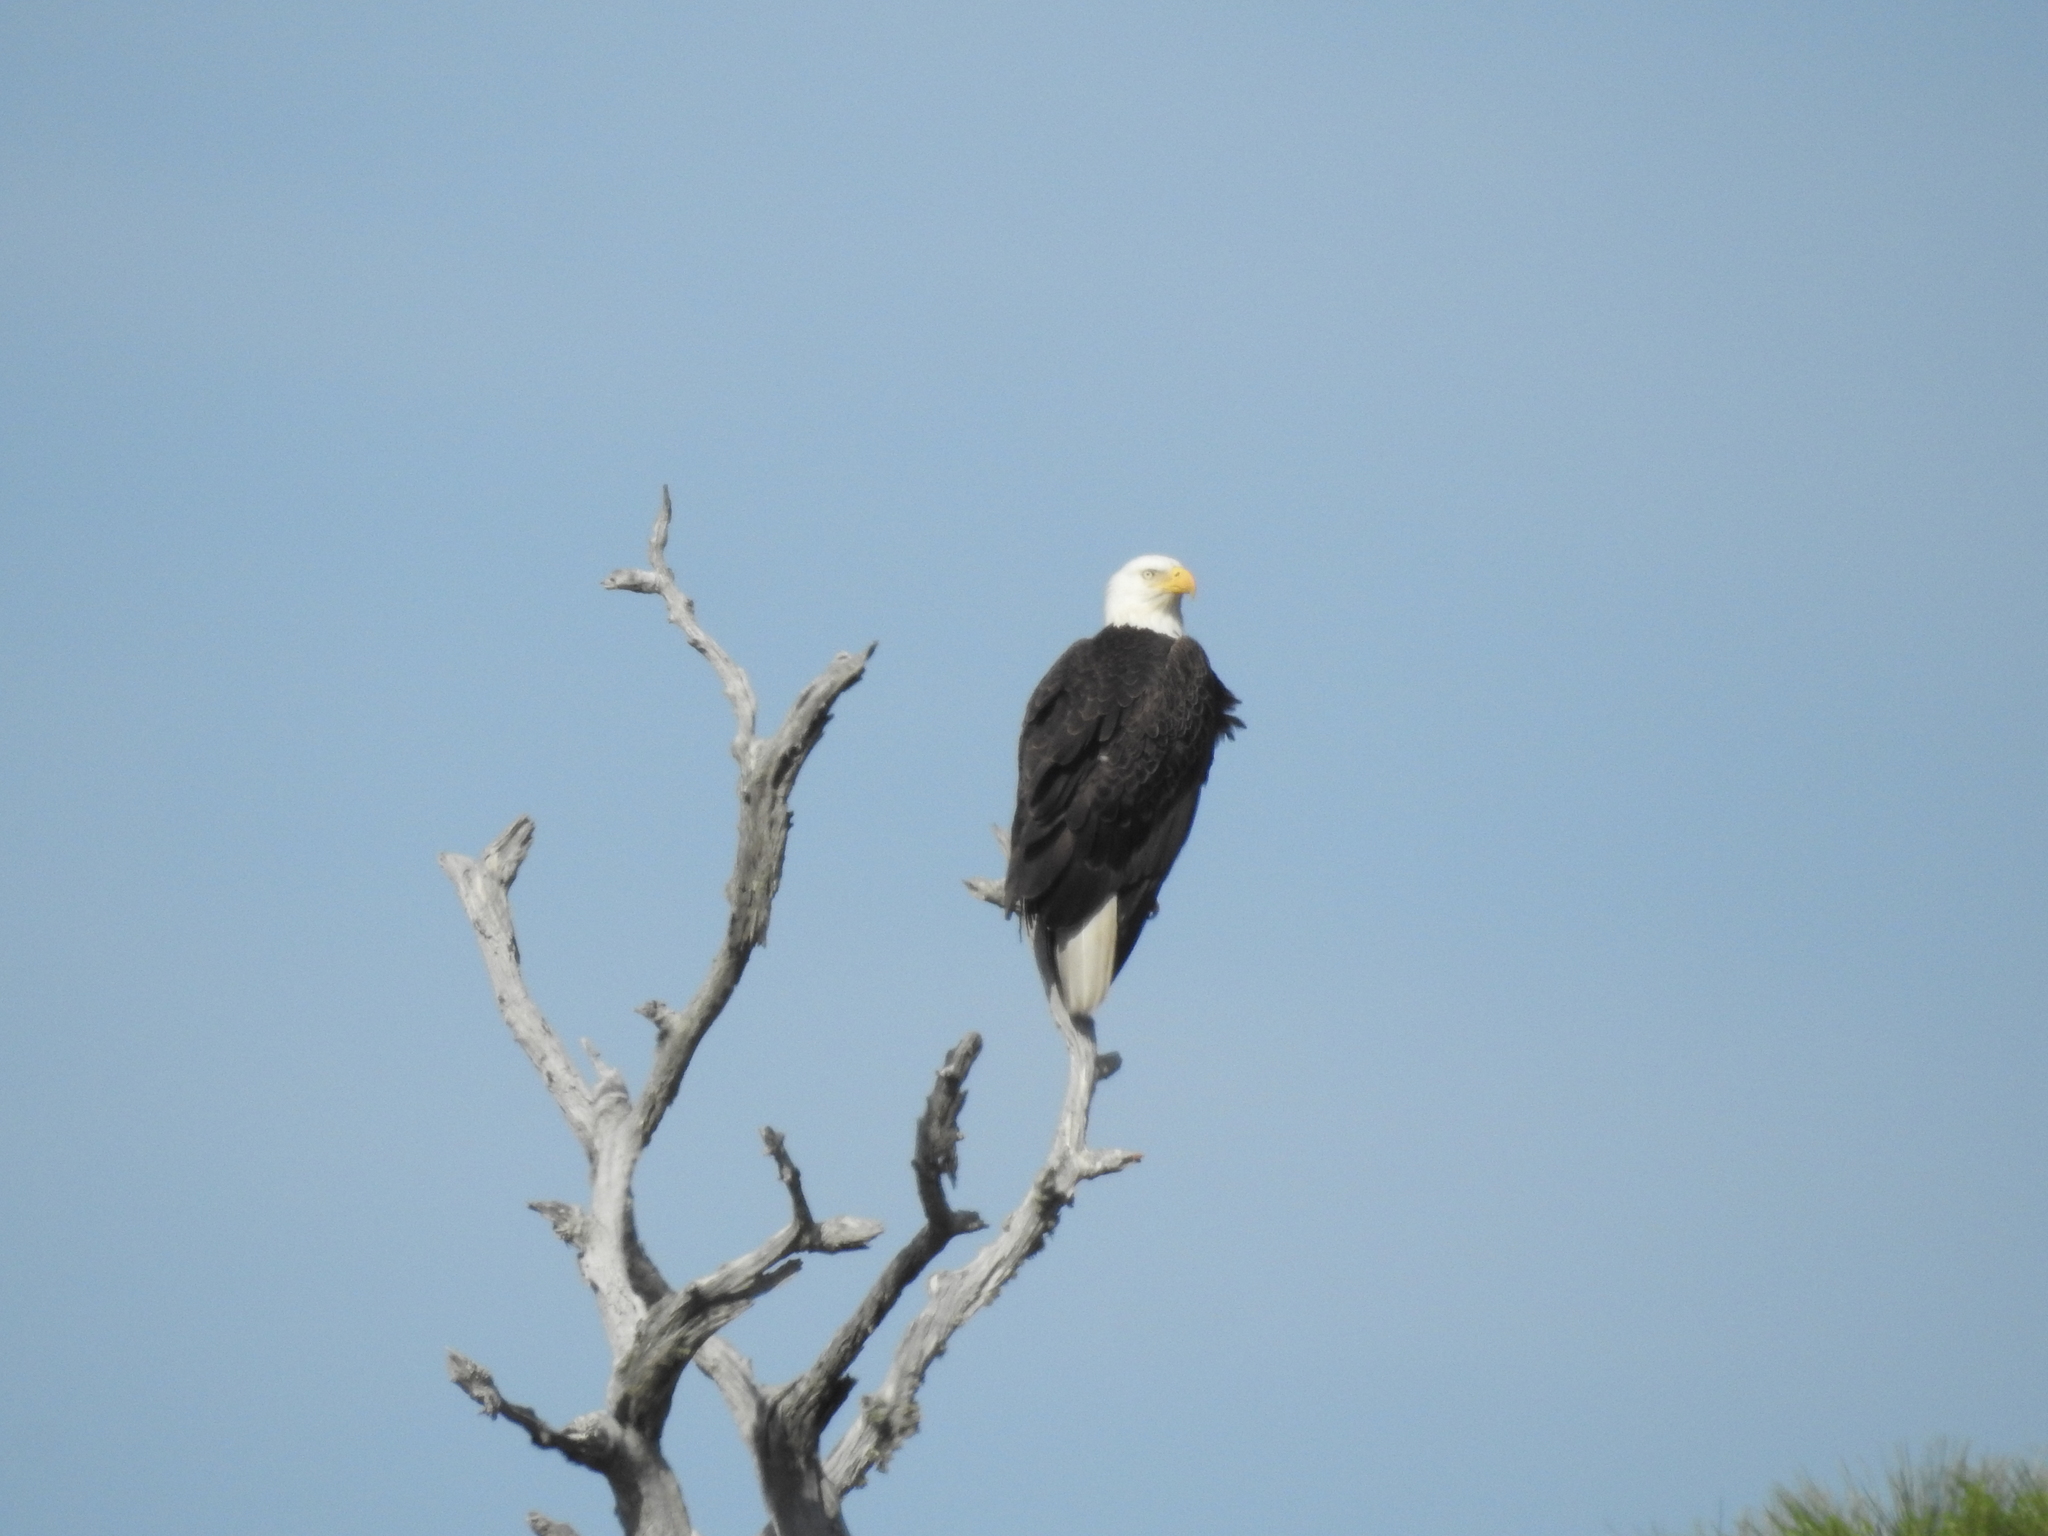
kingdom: Animalia
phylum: Chordata
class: Aves
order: Accipitriformes
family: Accipitridae
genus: Haliaeetus
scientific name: Haliaeetus leucocephalus
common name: Bald eagle
